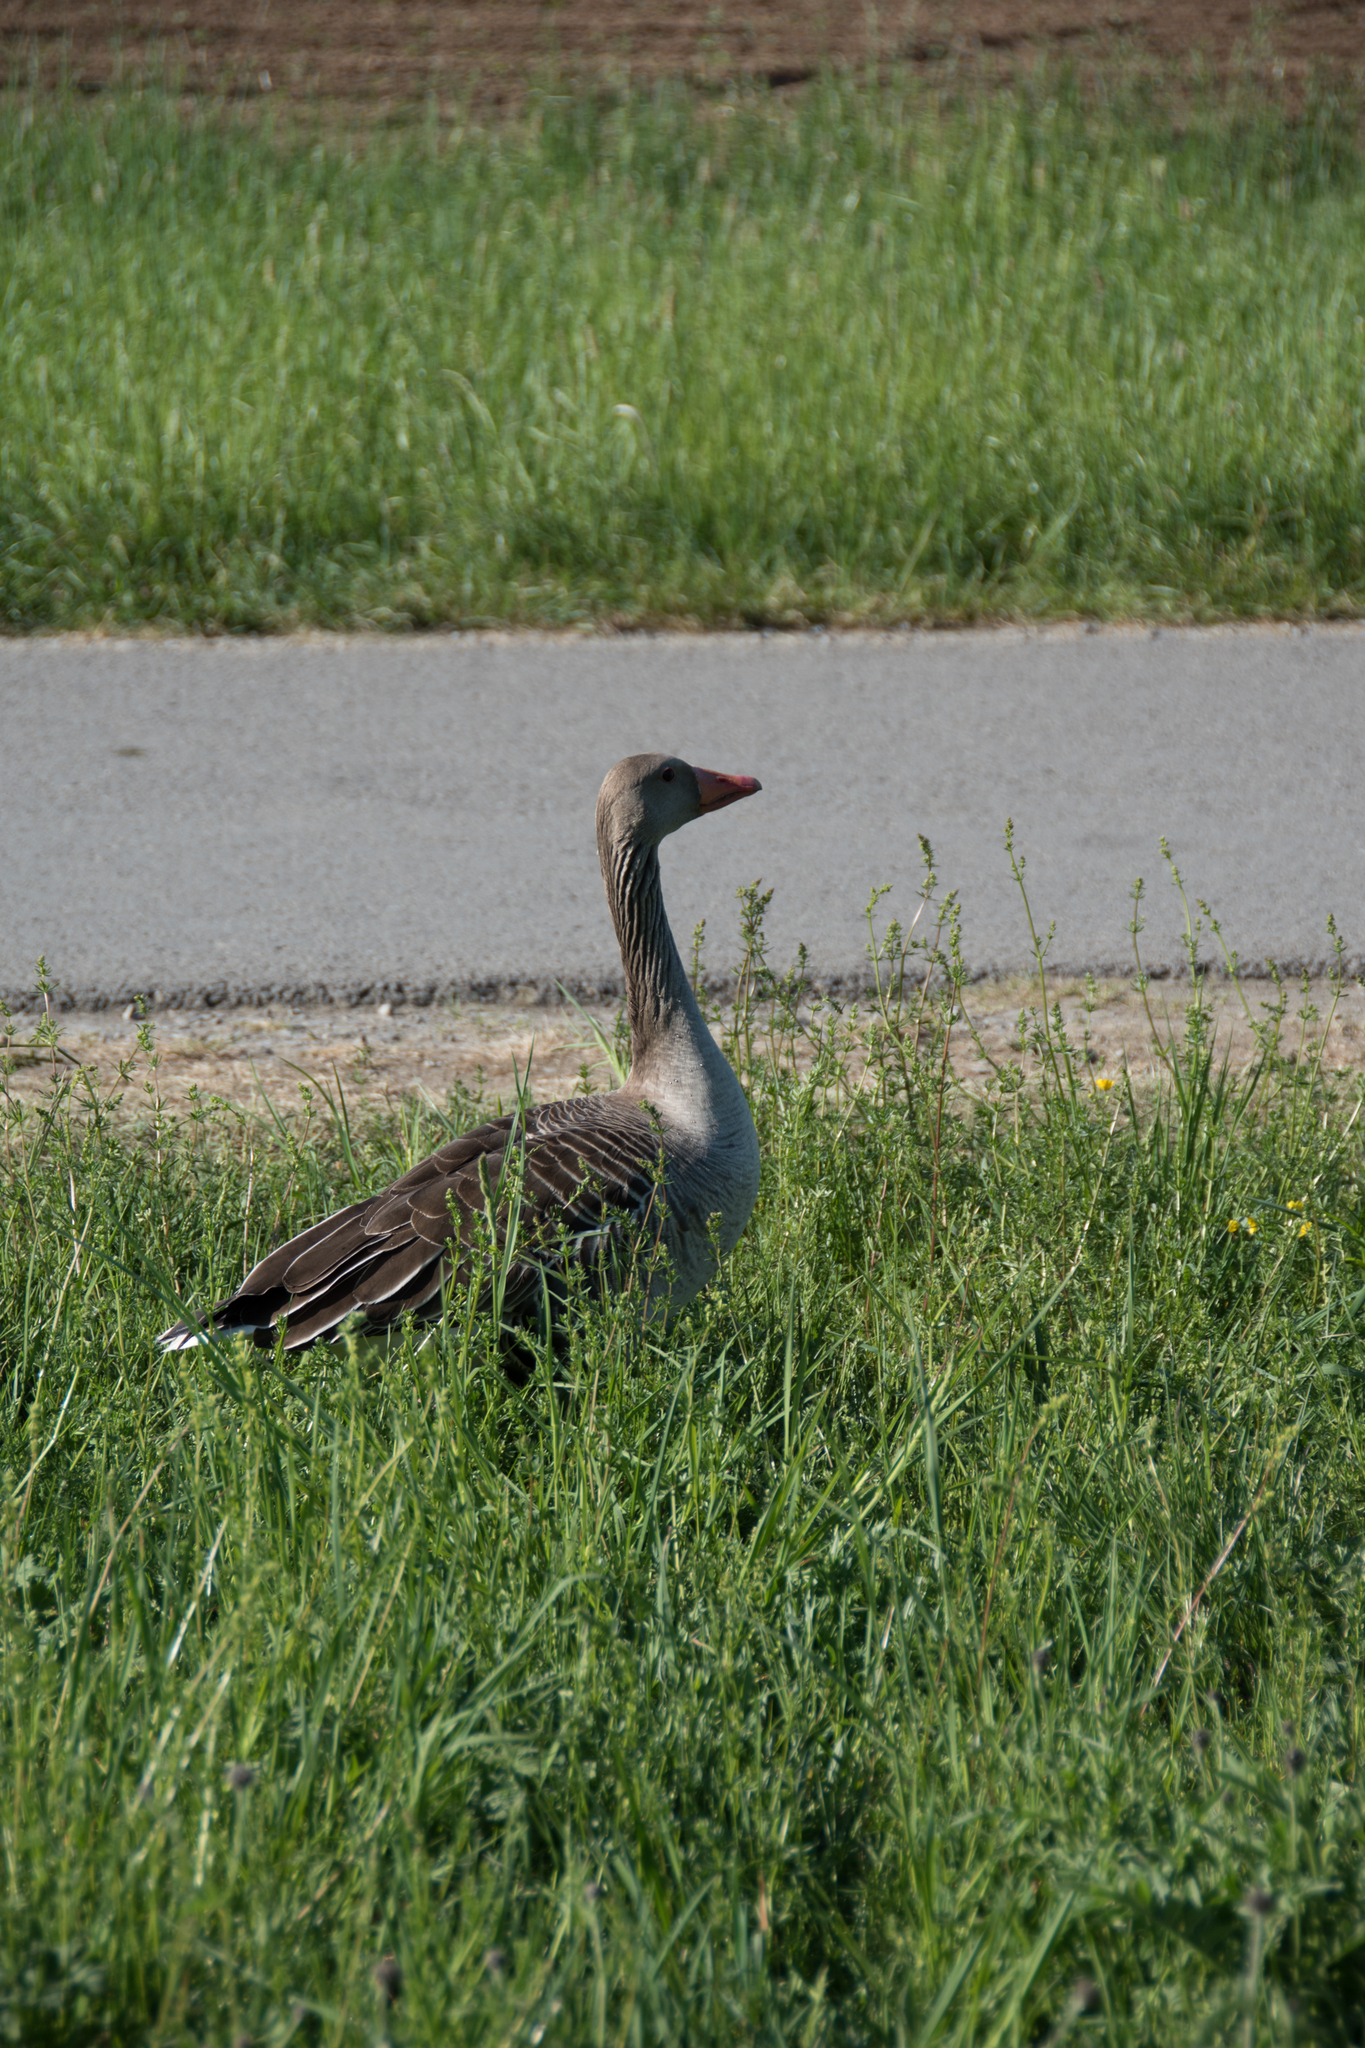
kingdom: Animalia
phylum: Chordata
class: Aves
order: Anseriformes
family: Anatidae
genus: Anser
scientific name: Anser anser
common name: Greylag goose
